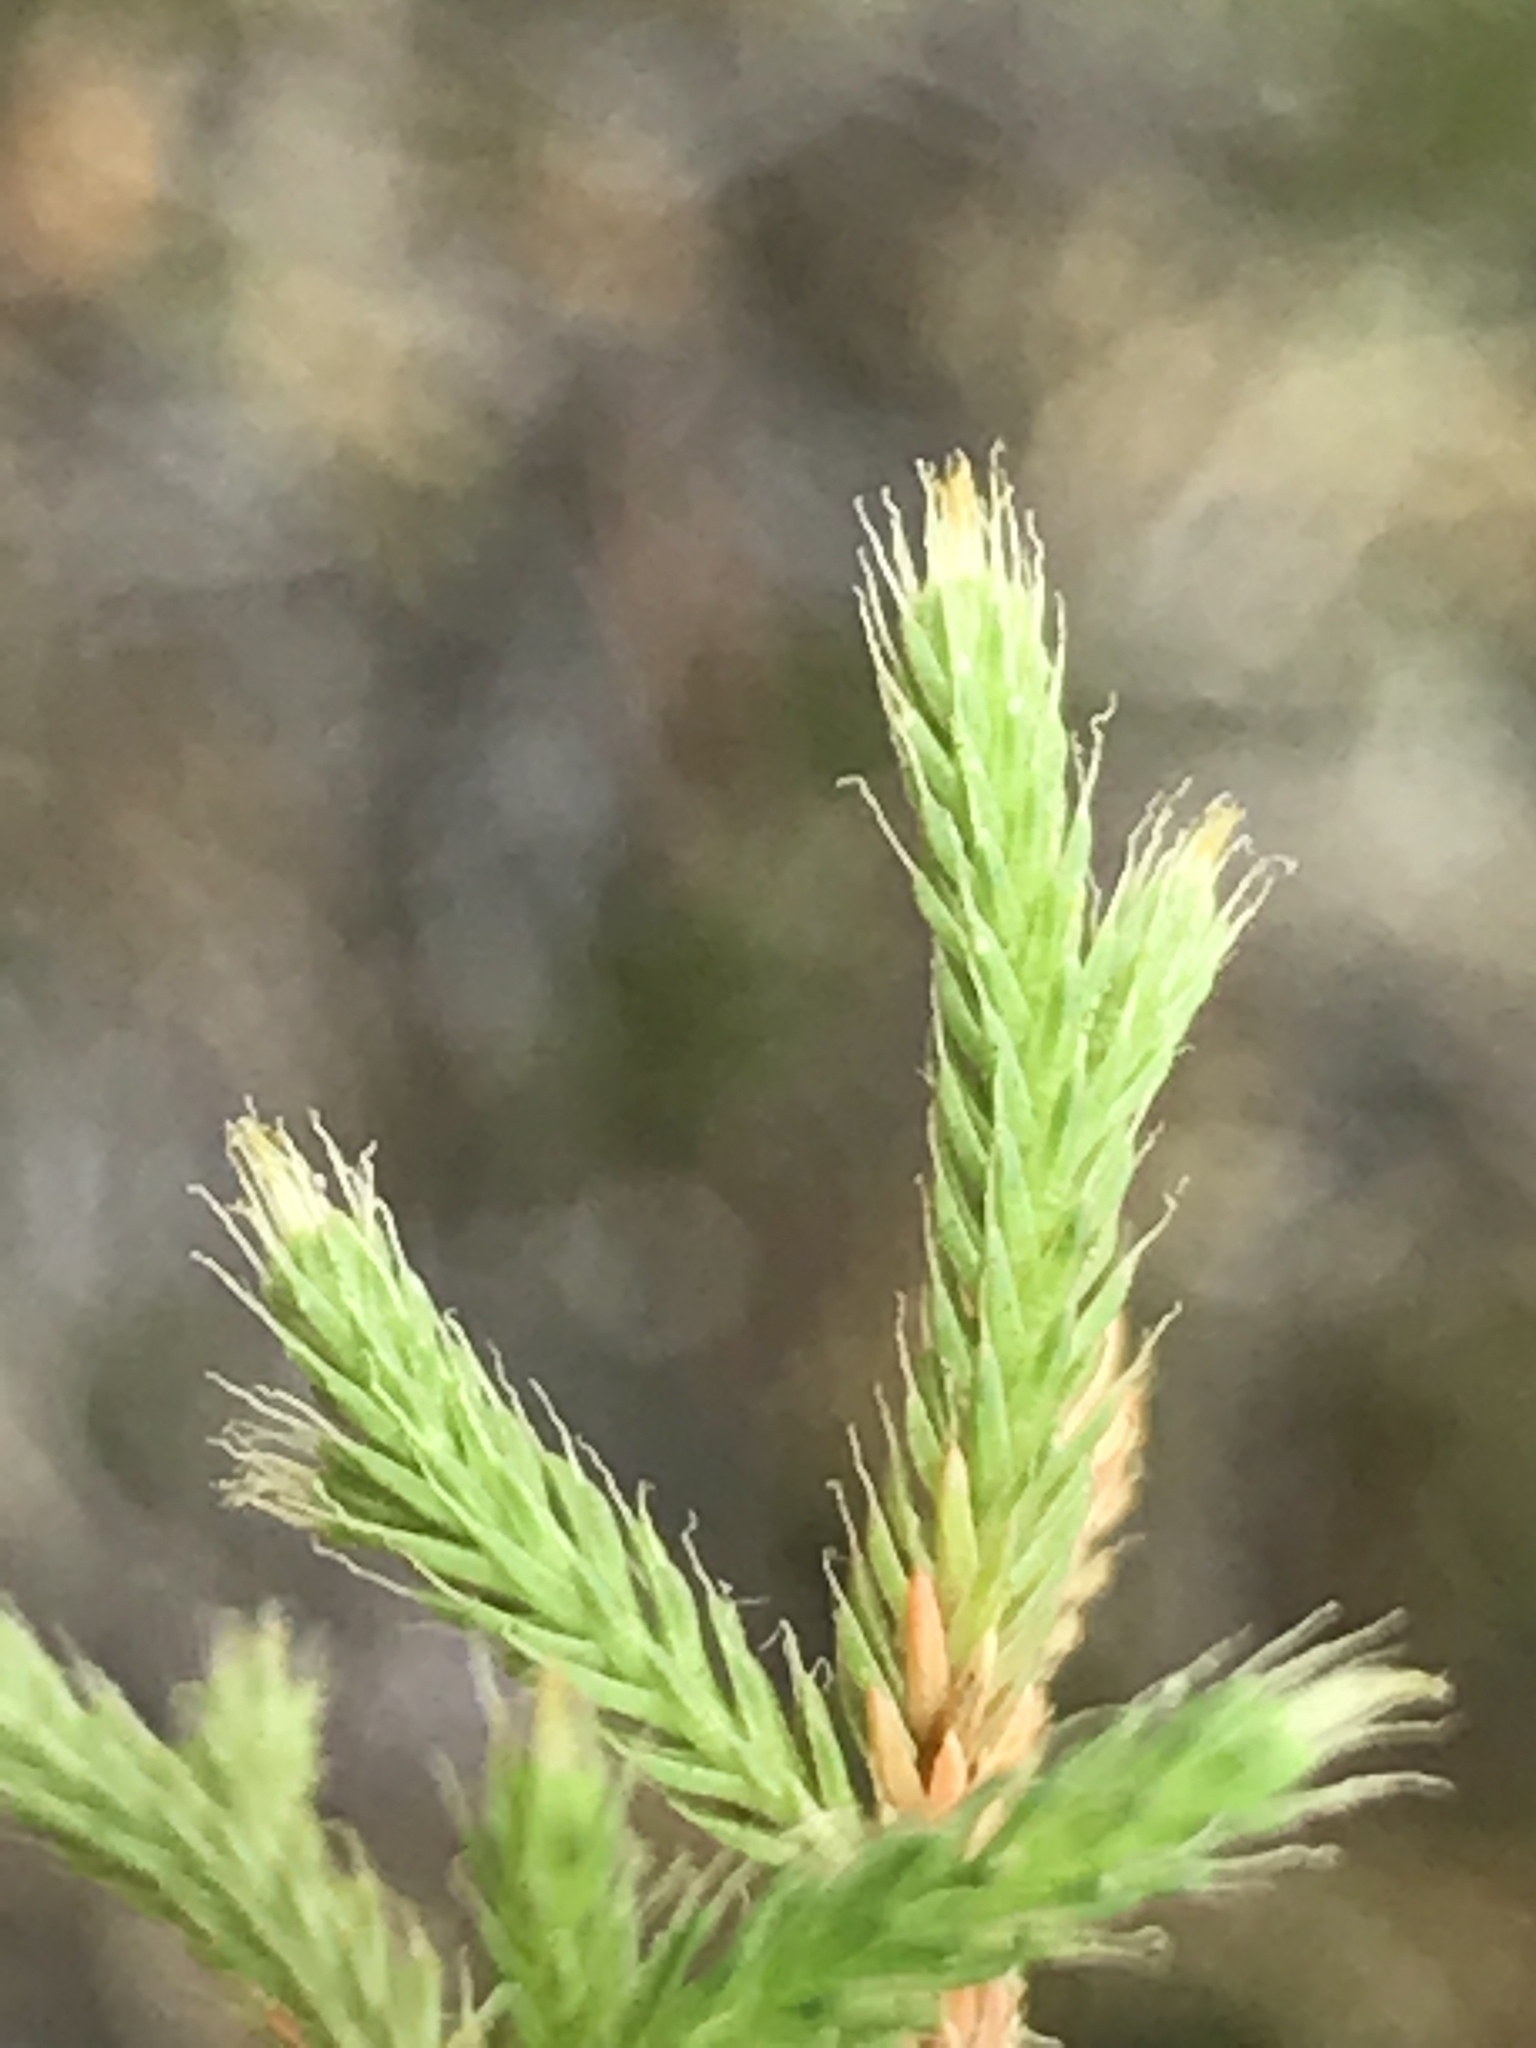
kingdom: Plantae
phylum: Tracheophyta
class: Lycopodiopsida
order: Selaginellales
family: Selaginellaceae
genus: Selaginella
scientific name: Selaginella tortipila
